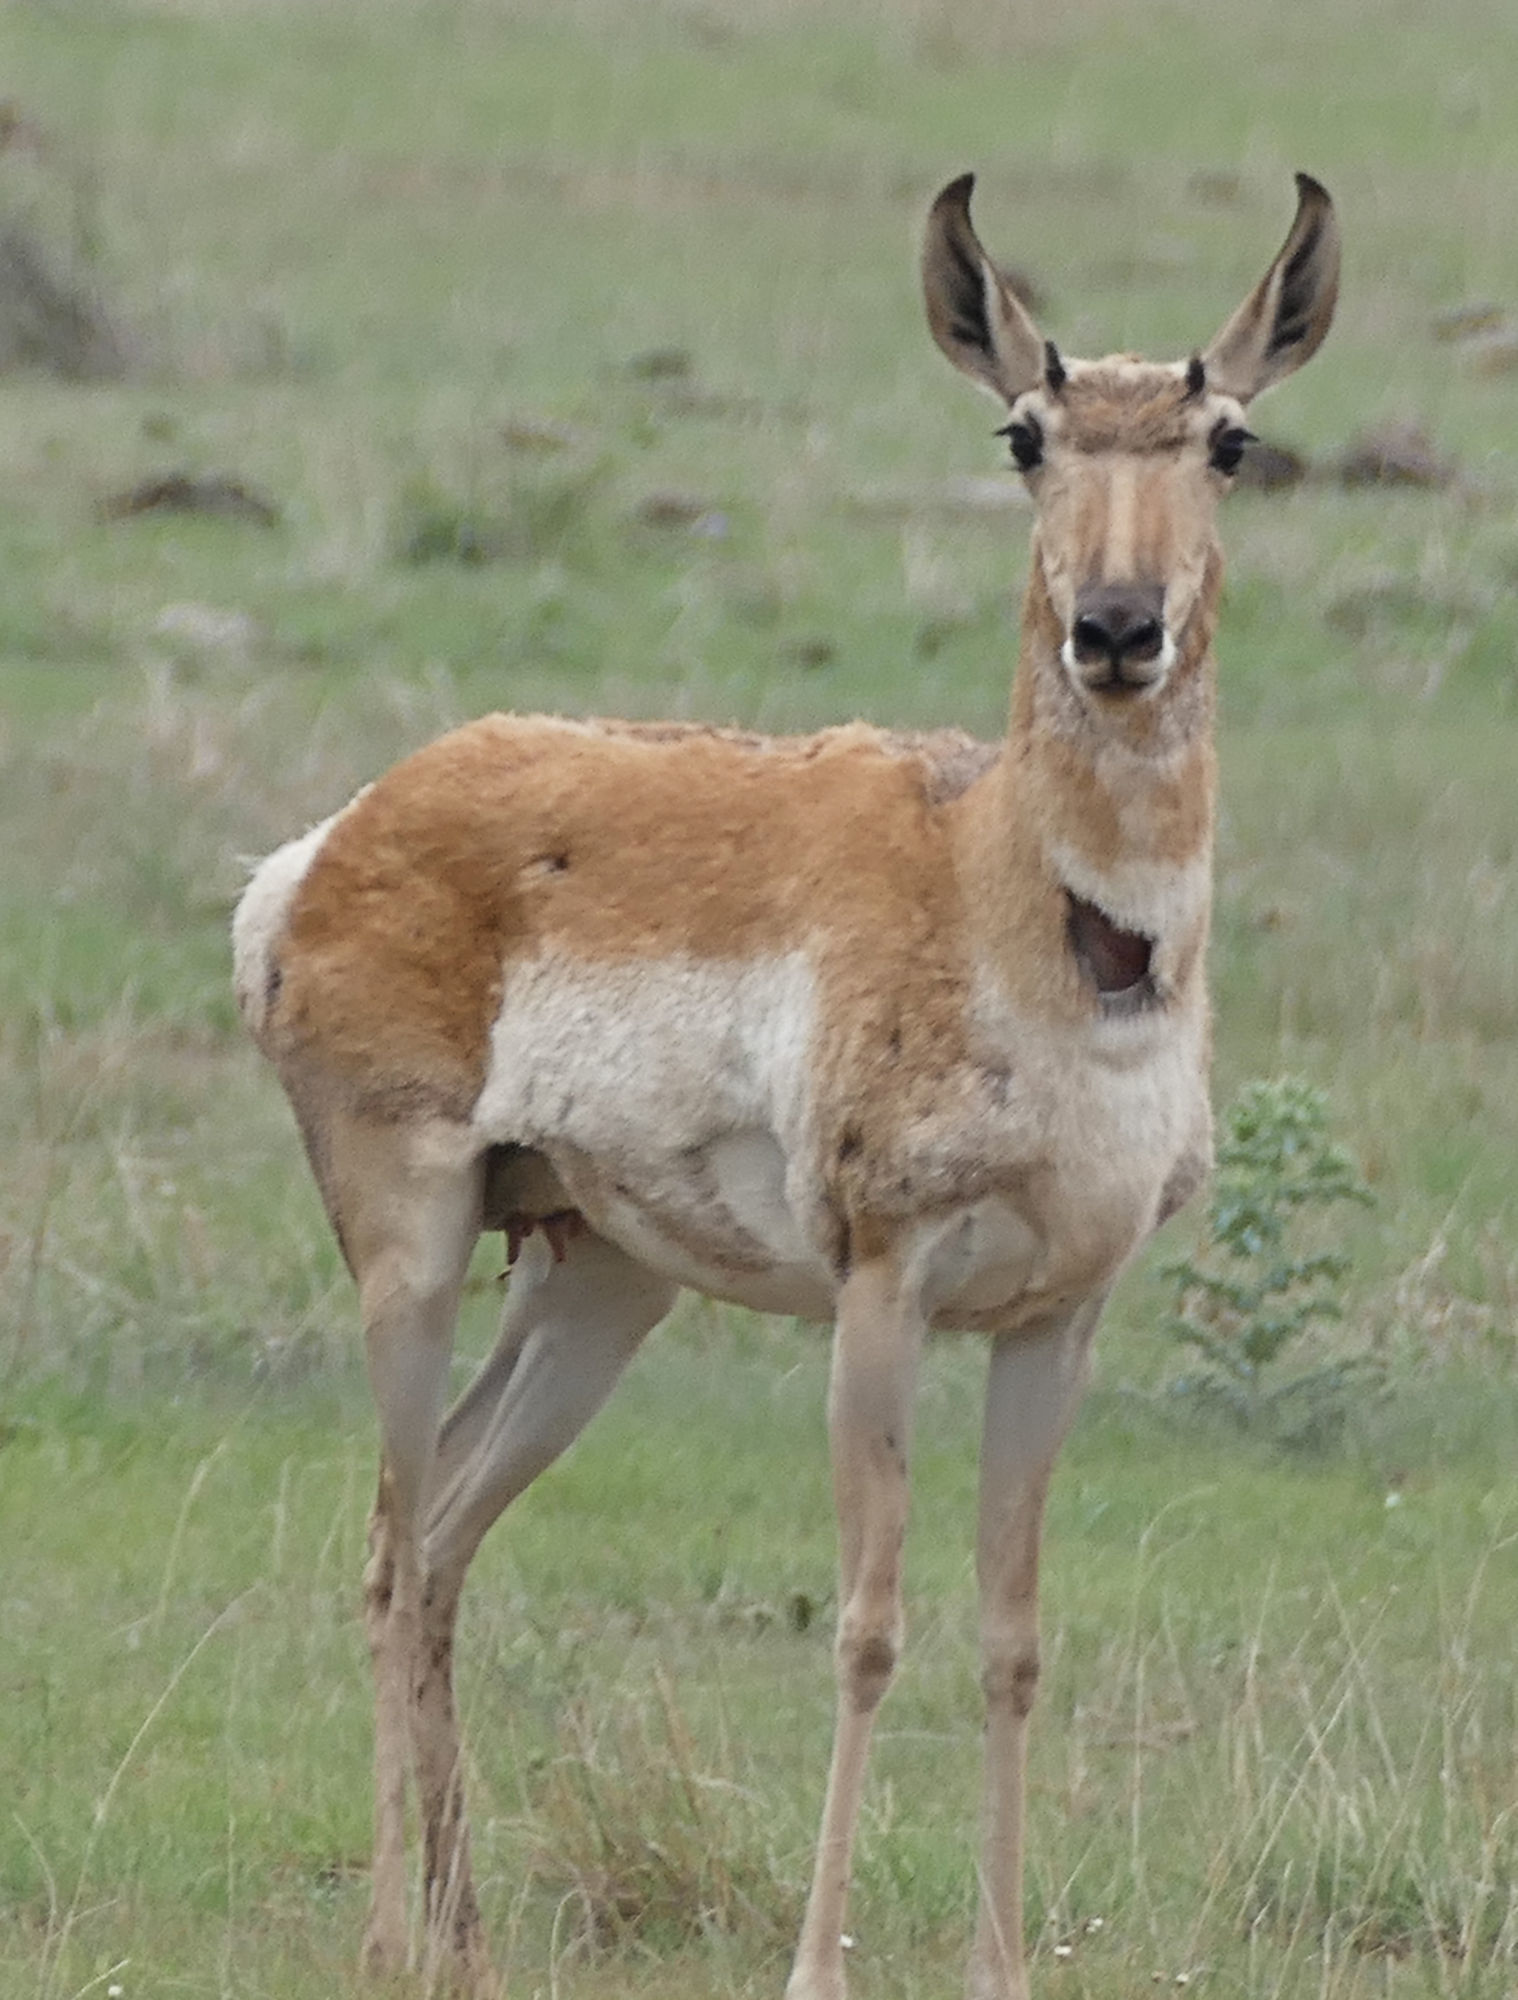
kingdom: Animalia
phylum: Chordata
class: Mammalia
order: Artiodactyla
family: Antilocapridae
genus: Antilocapra
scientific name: Antilocapra americana
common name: Pronghorn
